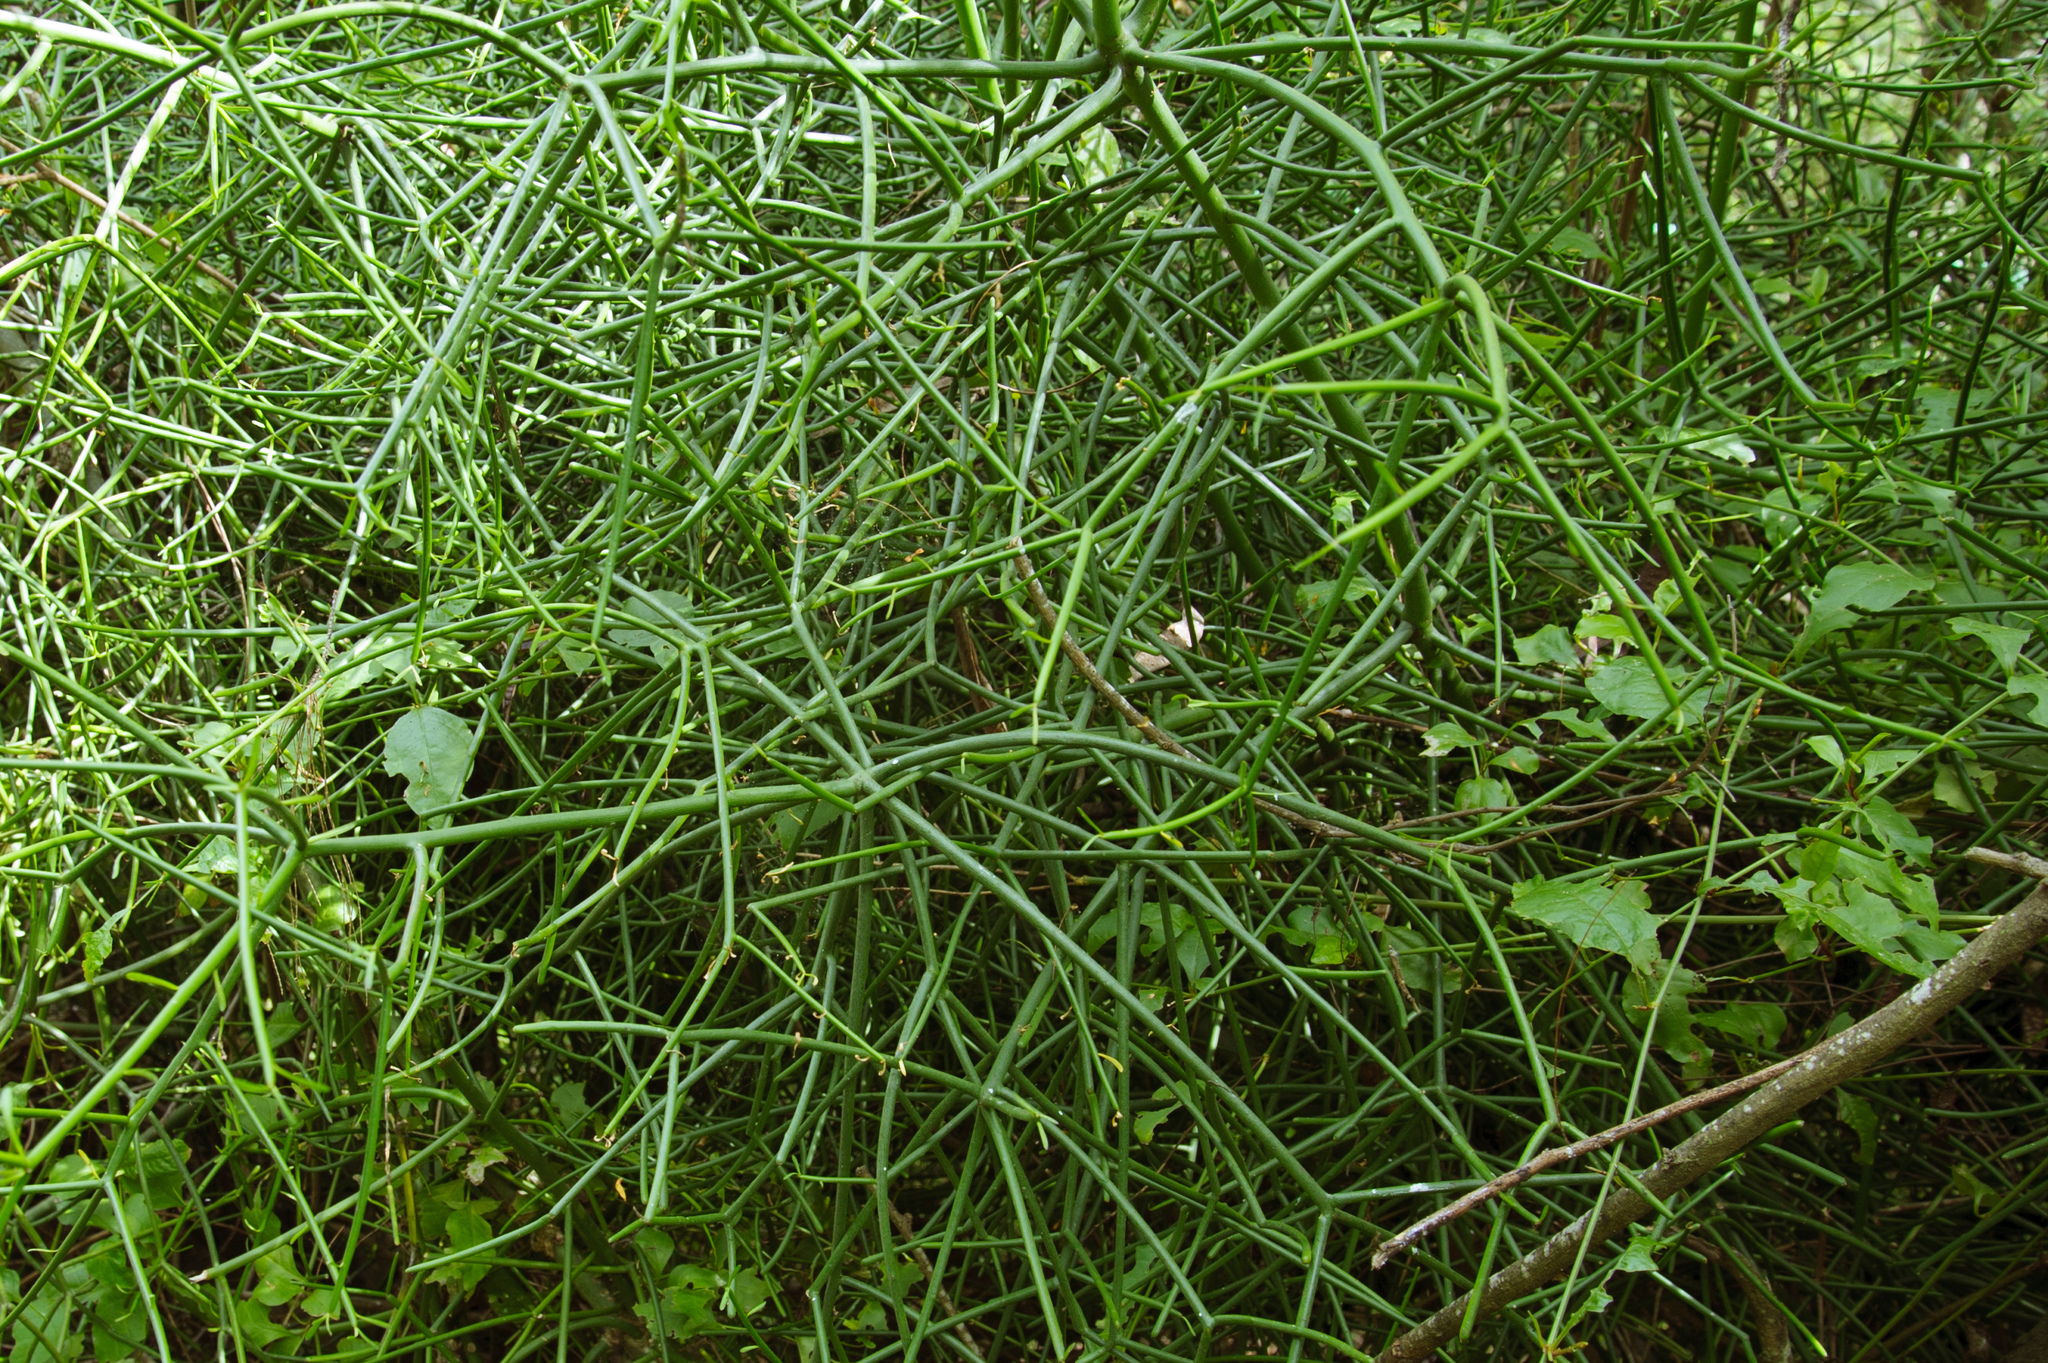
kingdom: Plantae
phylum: Tracheophyta
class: Magnoliopsida
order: Malpighiales
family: Euphorbiaceae
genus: Euphorbia
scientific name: Euphorbia tirucalli
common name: Indiantree spurge
